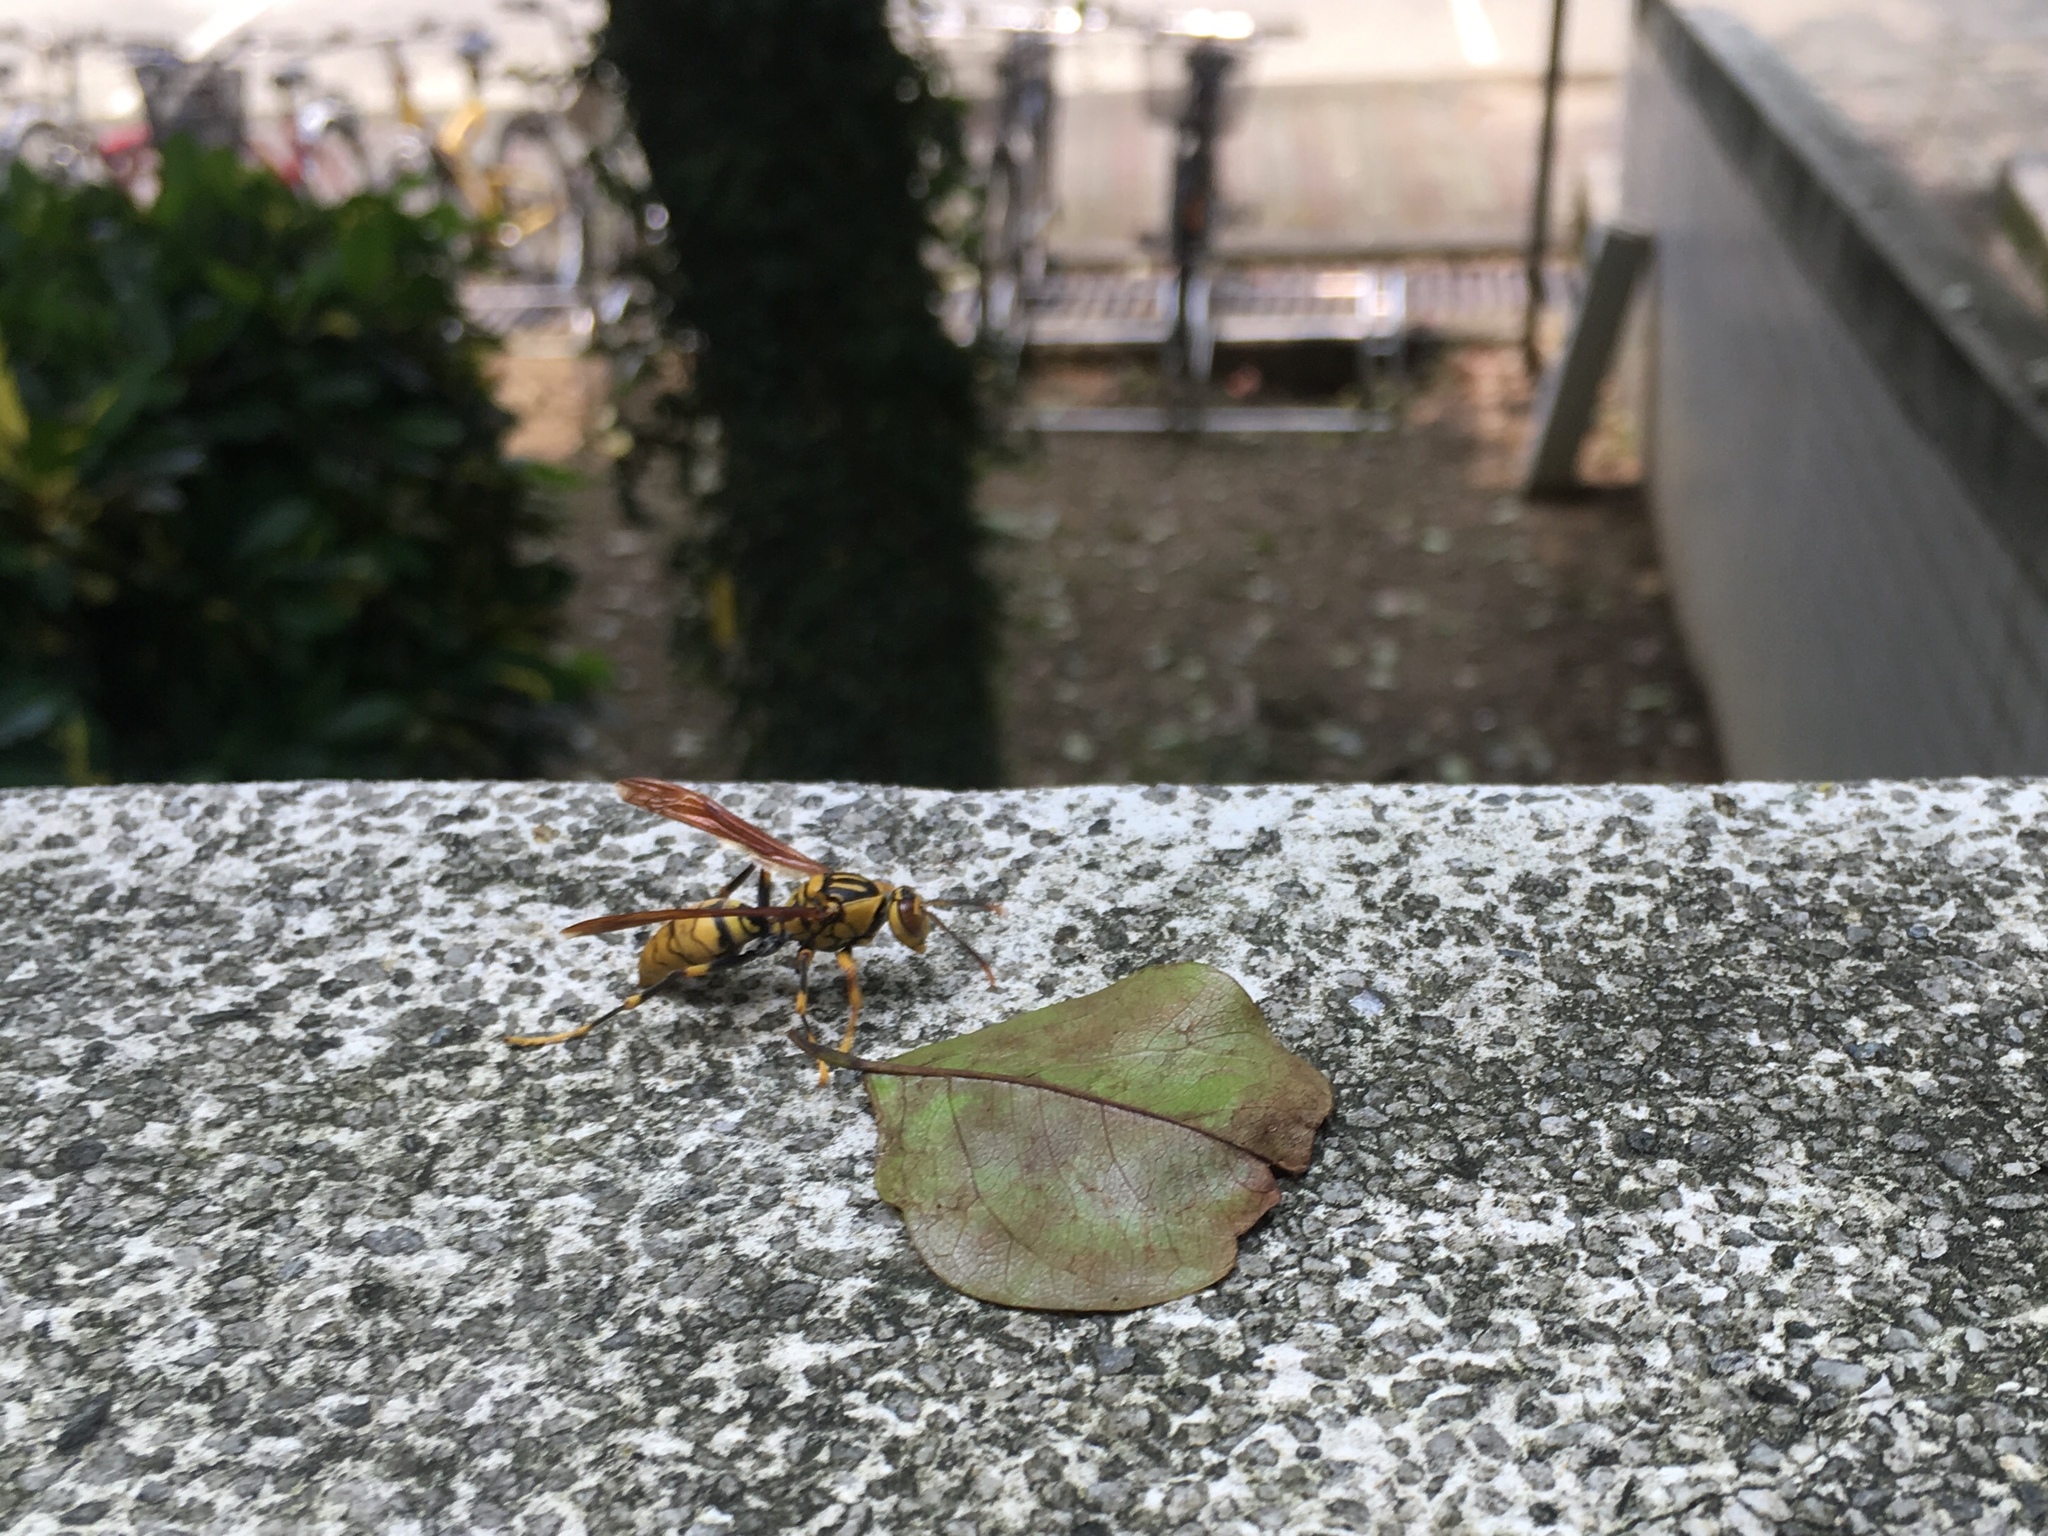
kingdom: Animalia
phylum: Arthropoda
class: Insecta
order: Hymenoptera
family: Eumenidae
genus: Polistes
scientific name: Polistes rothneyi
